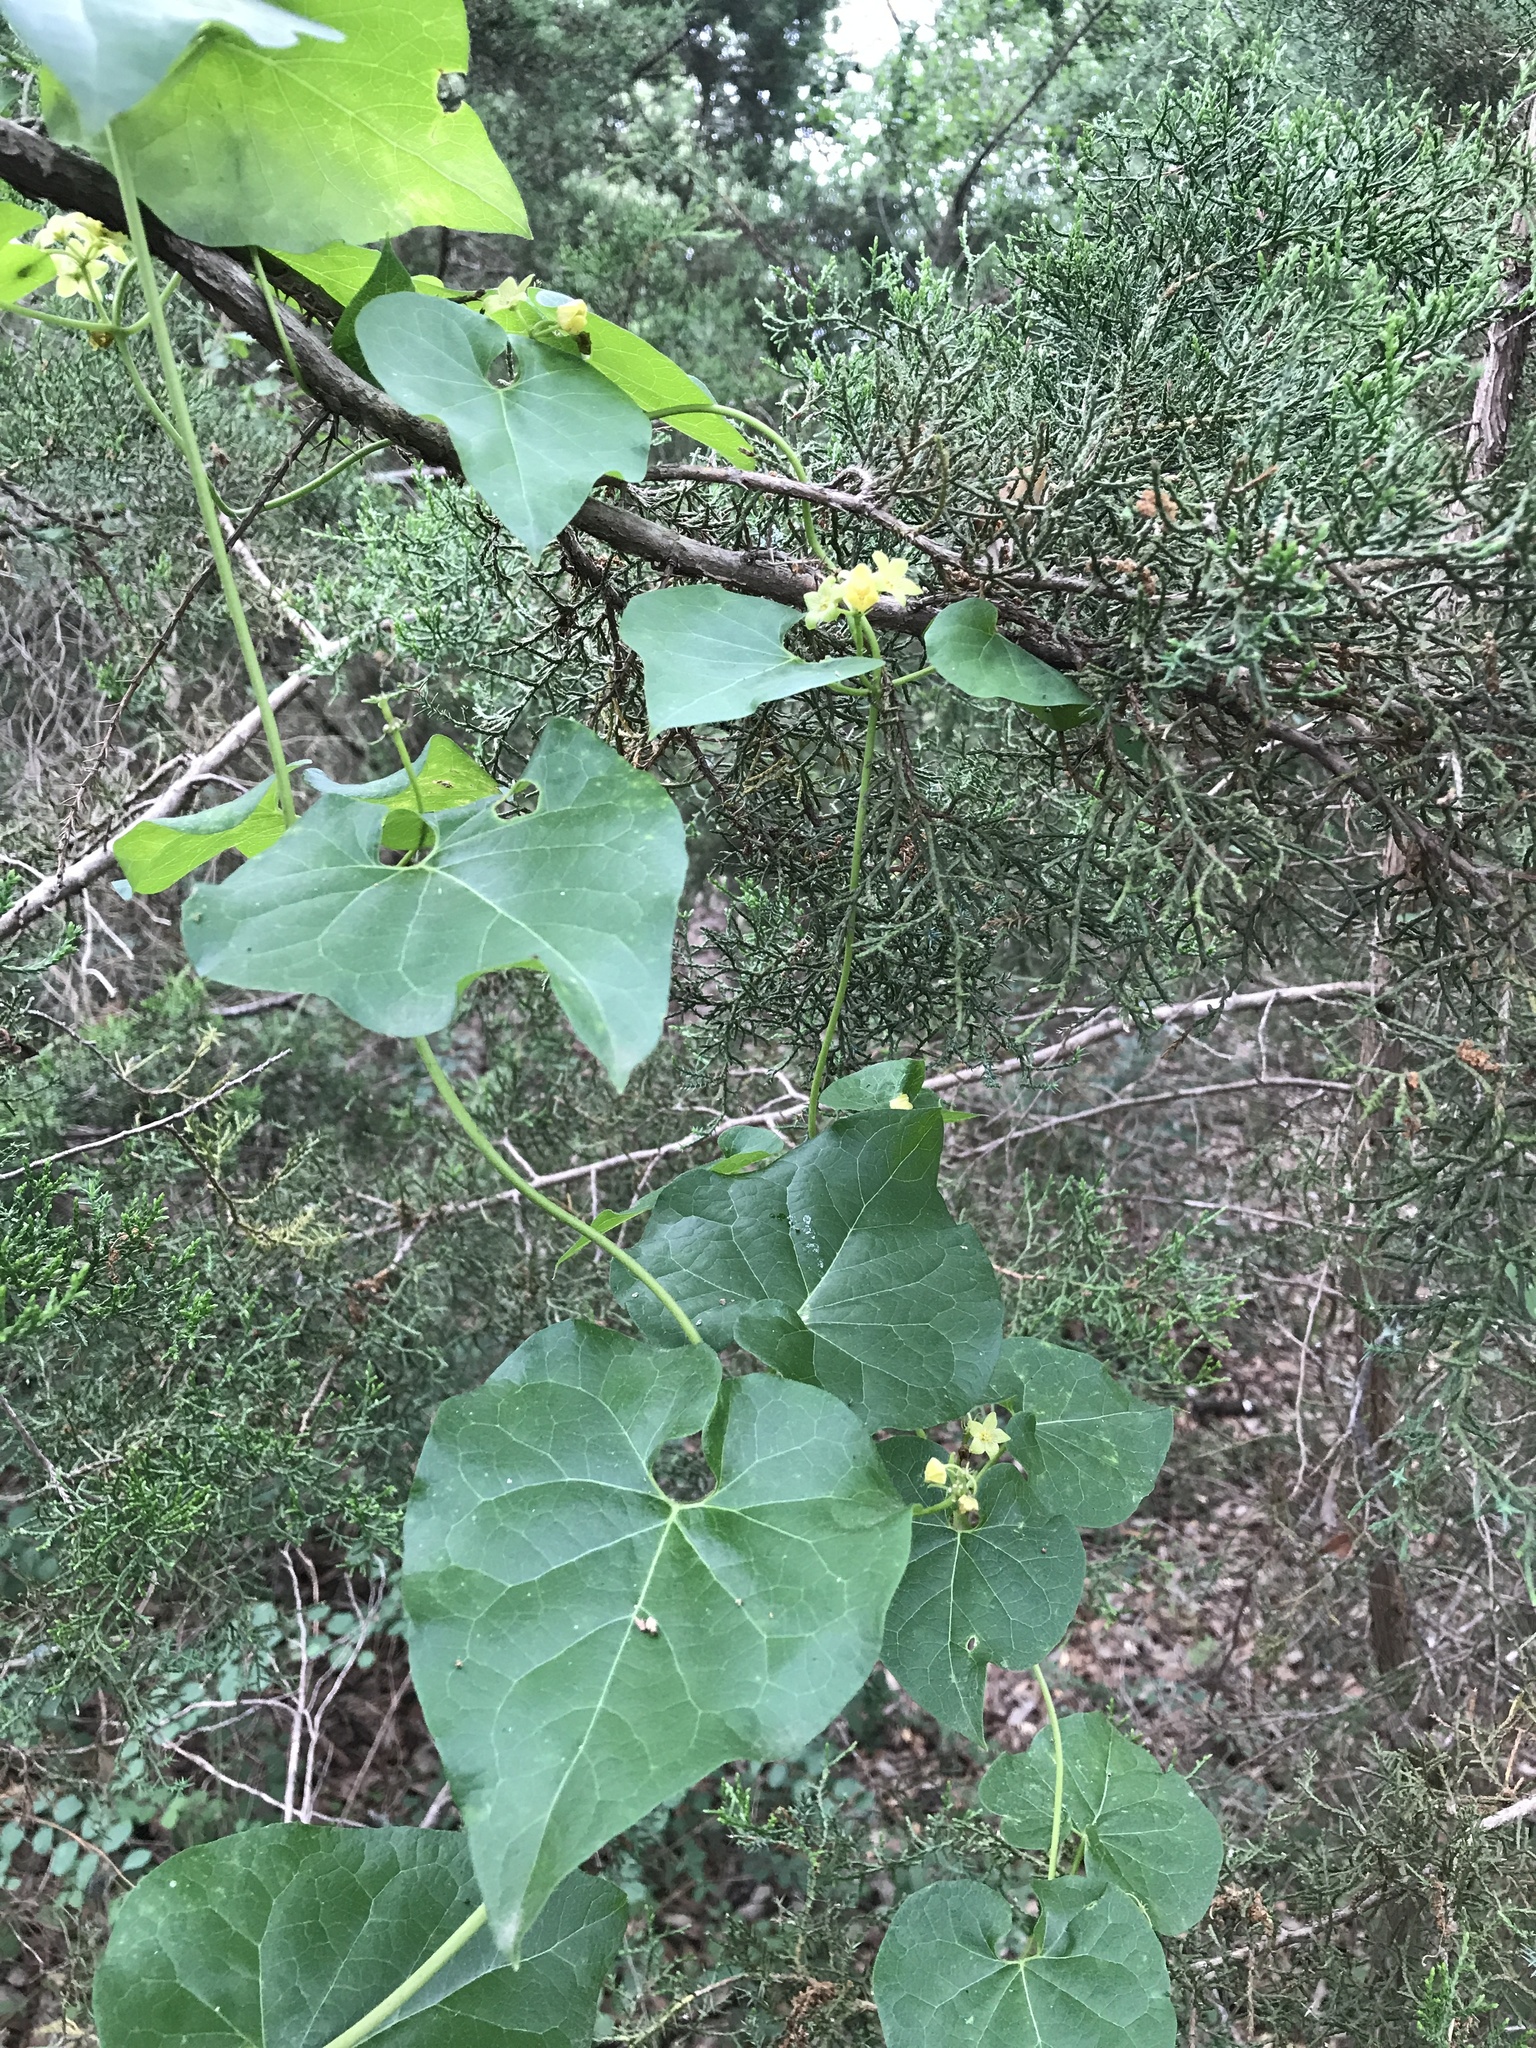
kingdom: Plantae
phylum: Tracheophyta
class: Magnoliopsida
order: Gentianales
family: Apocynaceae
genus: Matelea
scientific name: Matelea edwardsensis
